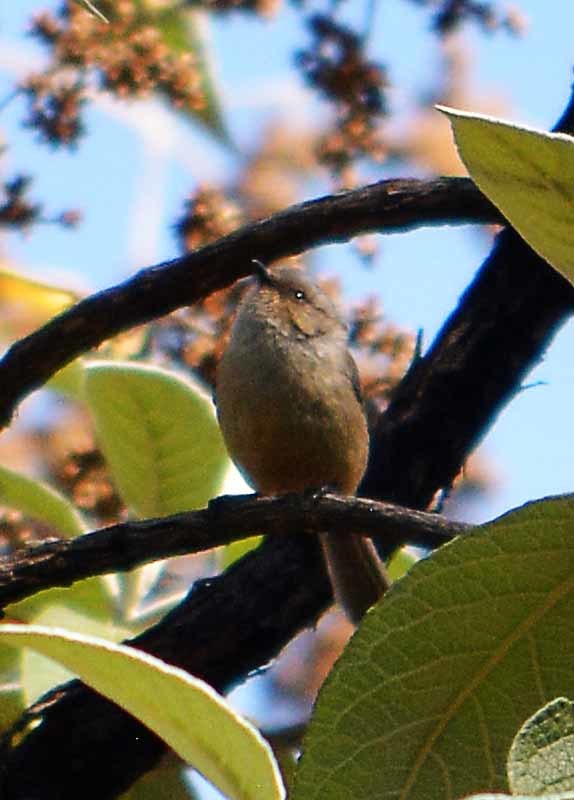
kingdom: Animalia
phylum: Chordata
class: Aves
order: Passeriformes
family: Aegithalidae
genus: Psaltriparus
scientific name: Psaltriparus minimus
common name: American bushtit
